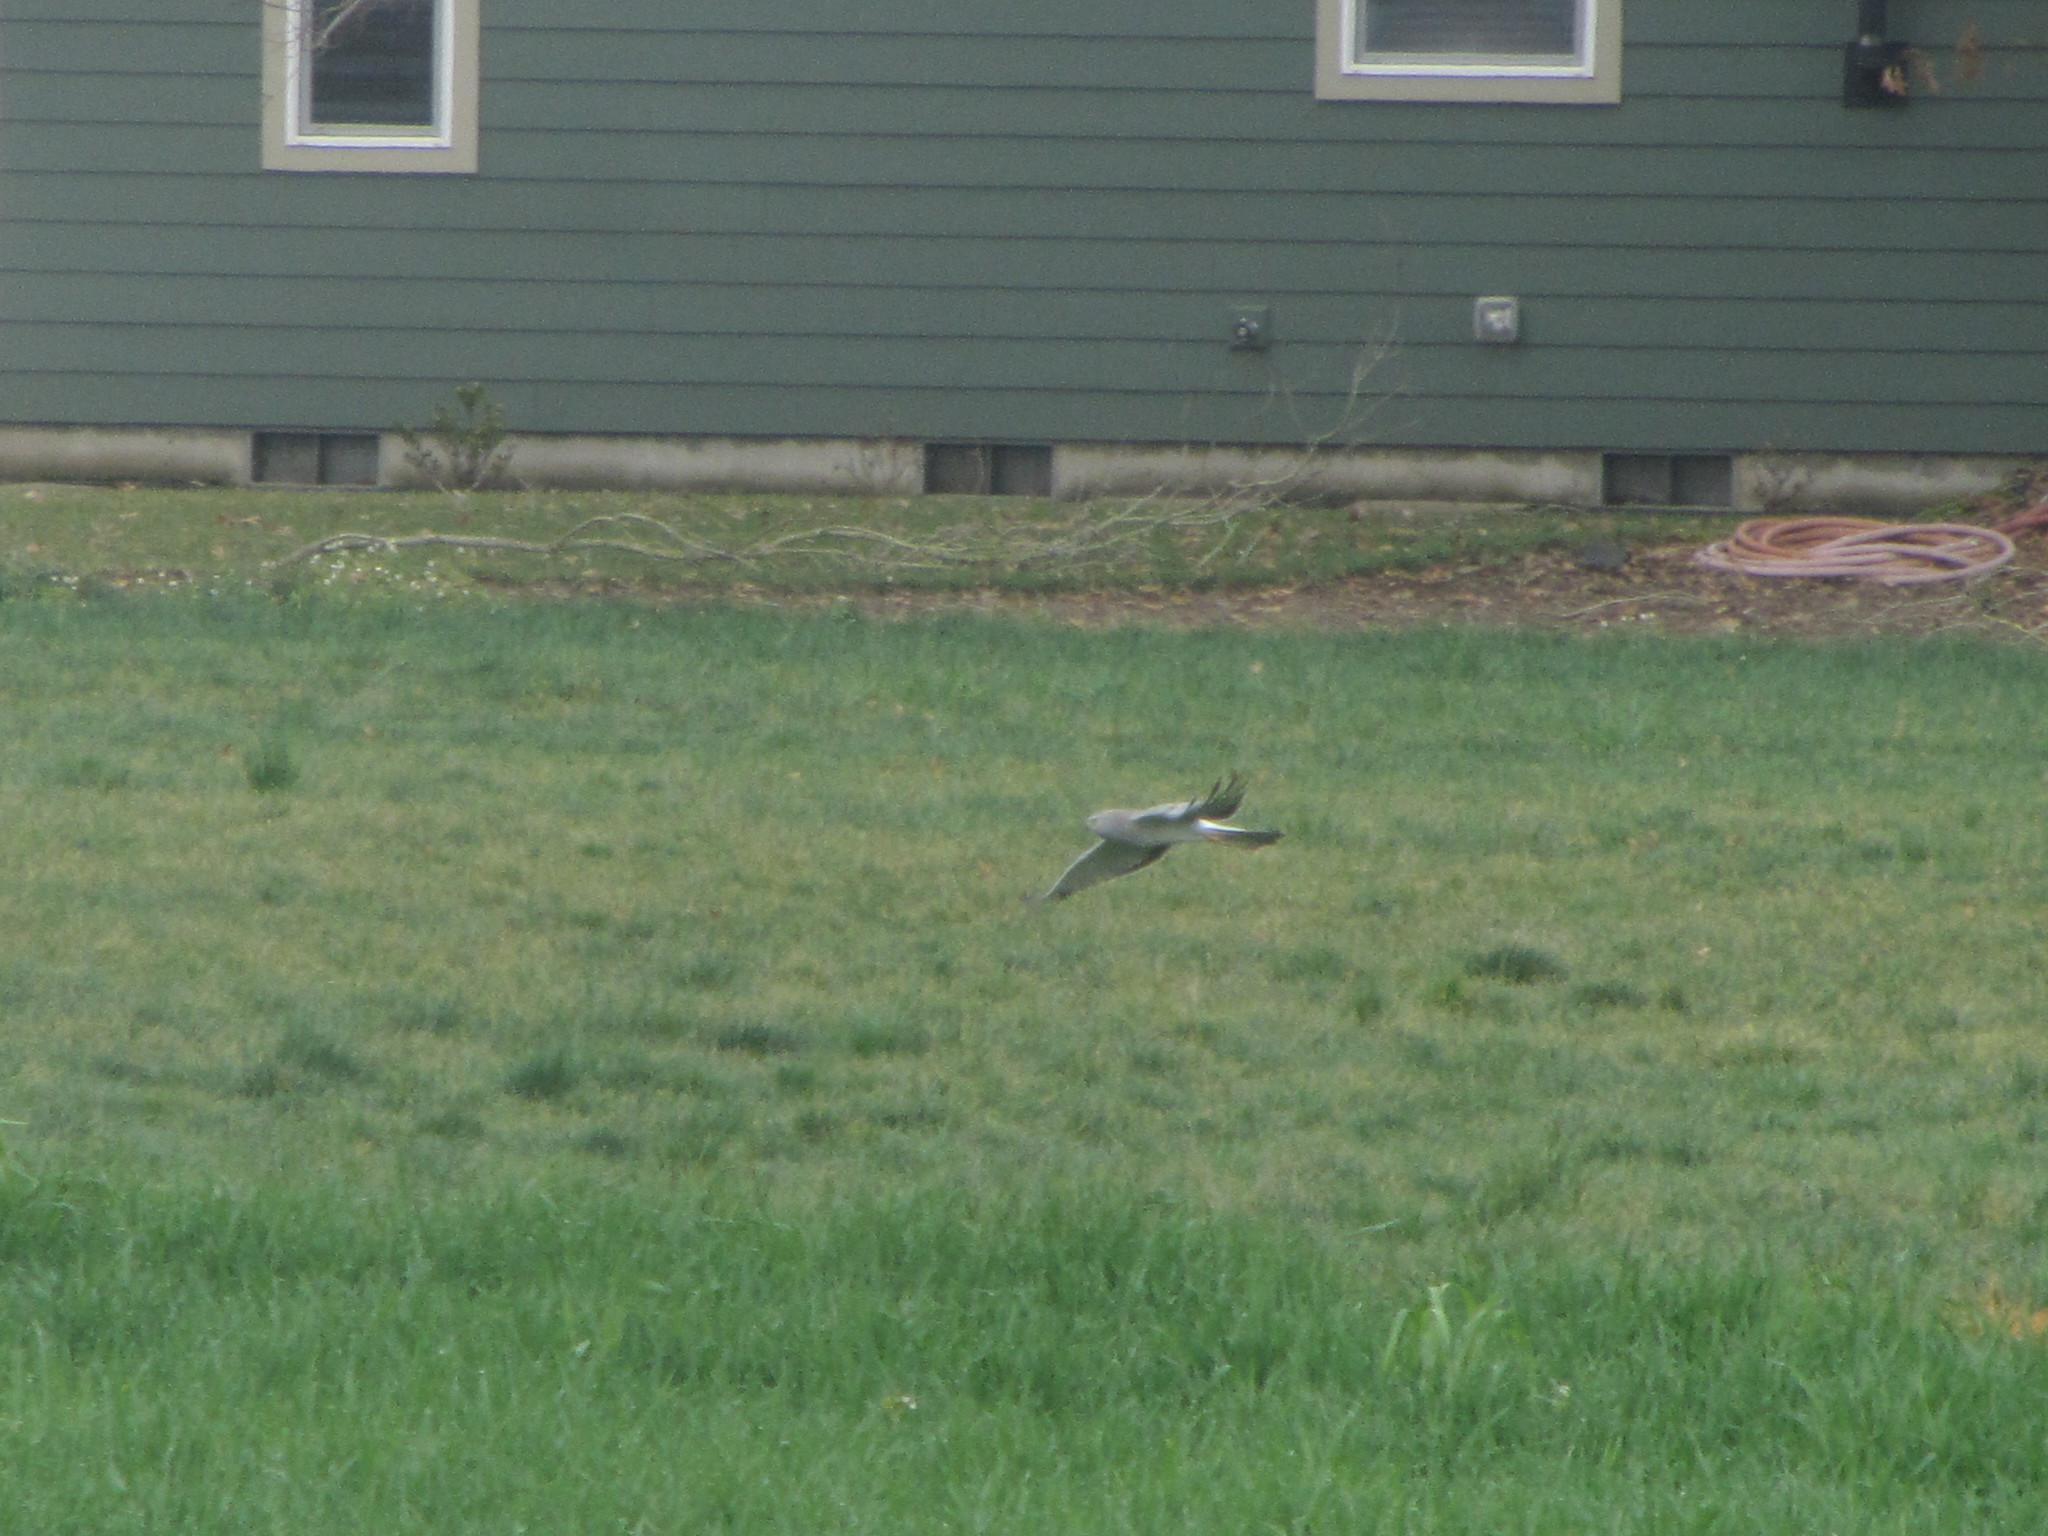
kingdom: Animalia
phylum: Chordata
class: Aves
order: Accipitriformes
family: Accipitridae
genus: Circus
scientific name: Circus cyaneus
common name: Hen harrier
